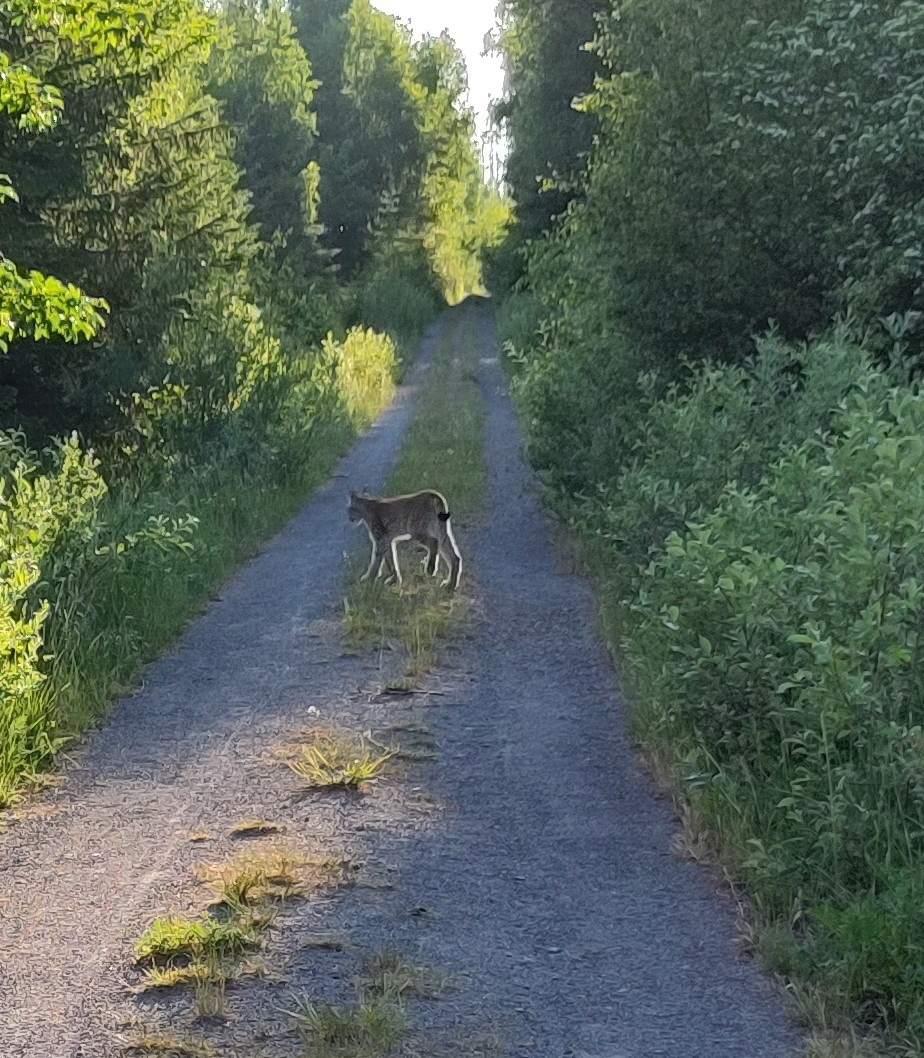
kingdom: Animalia
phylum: Chordata
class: Mammalia
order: Carnivora
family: Felidae
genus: Lynx
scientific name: Lynx lynx
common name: Eurasian lynx
